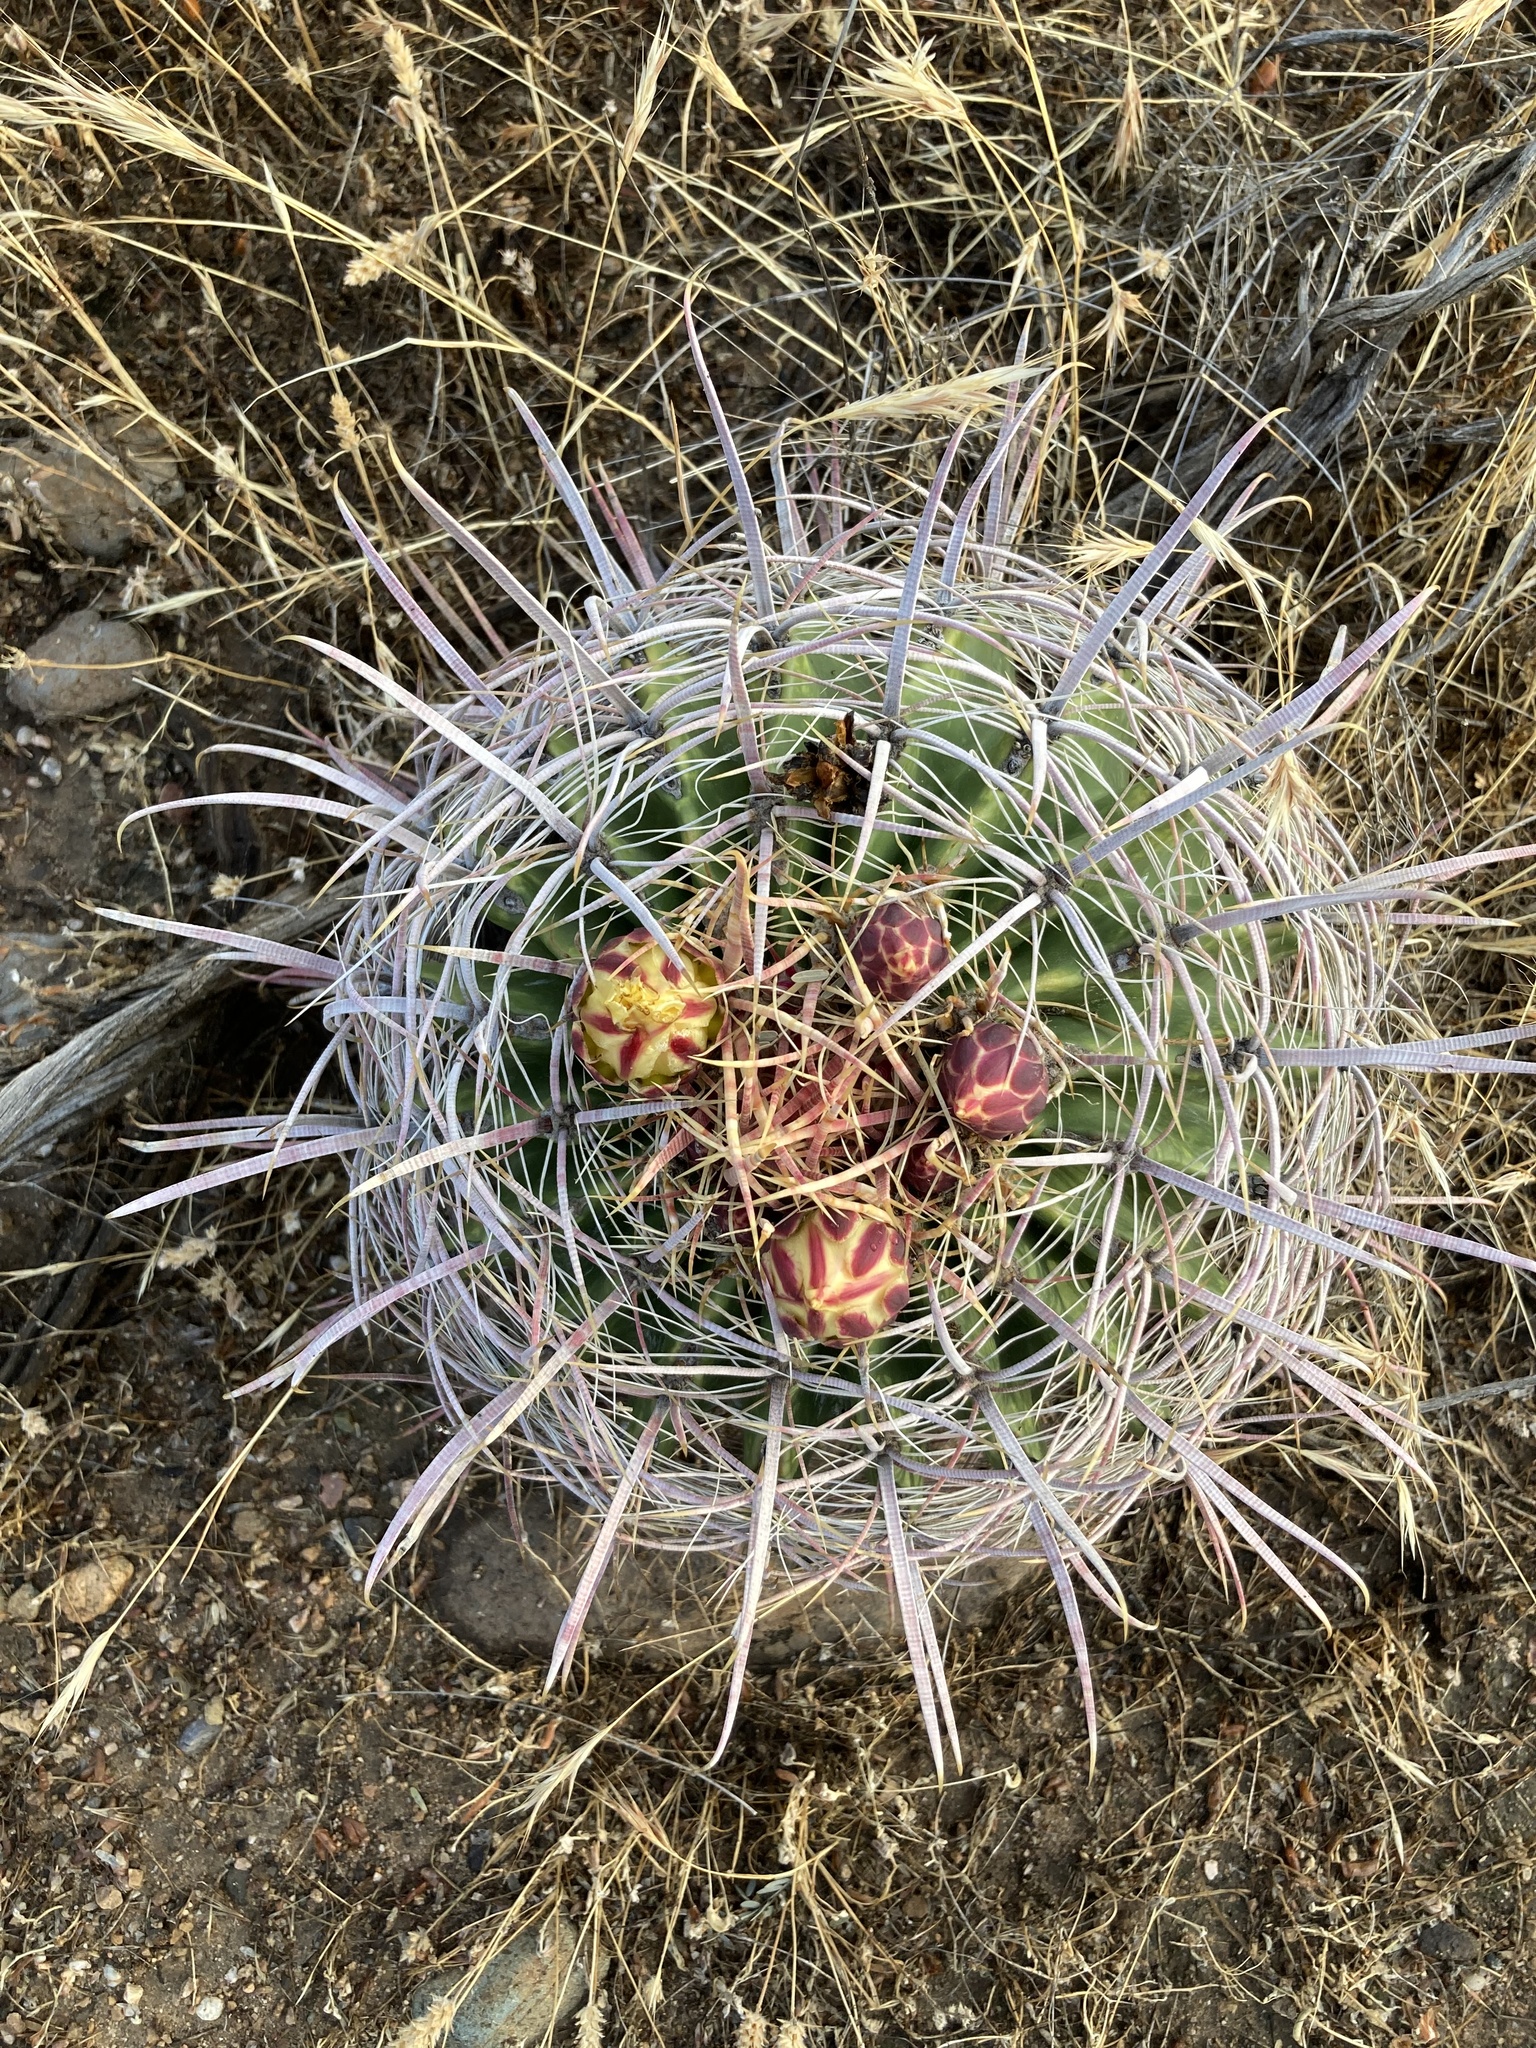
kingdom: Plantae
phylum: Tracheophyta
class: Magnoliopsida
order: Caryophyllales
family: Cactaceae
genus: Ferocactus
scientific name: Ferocactus cylindraceus
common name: California barrel cactus
